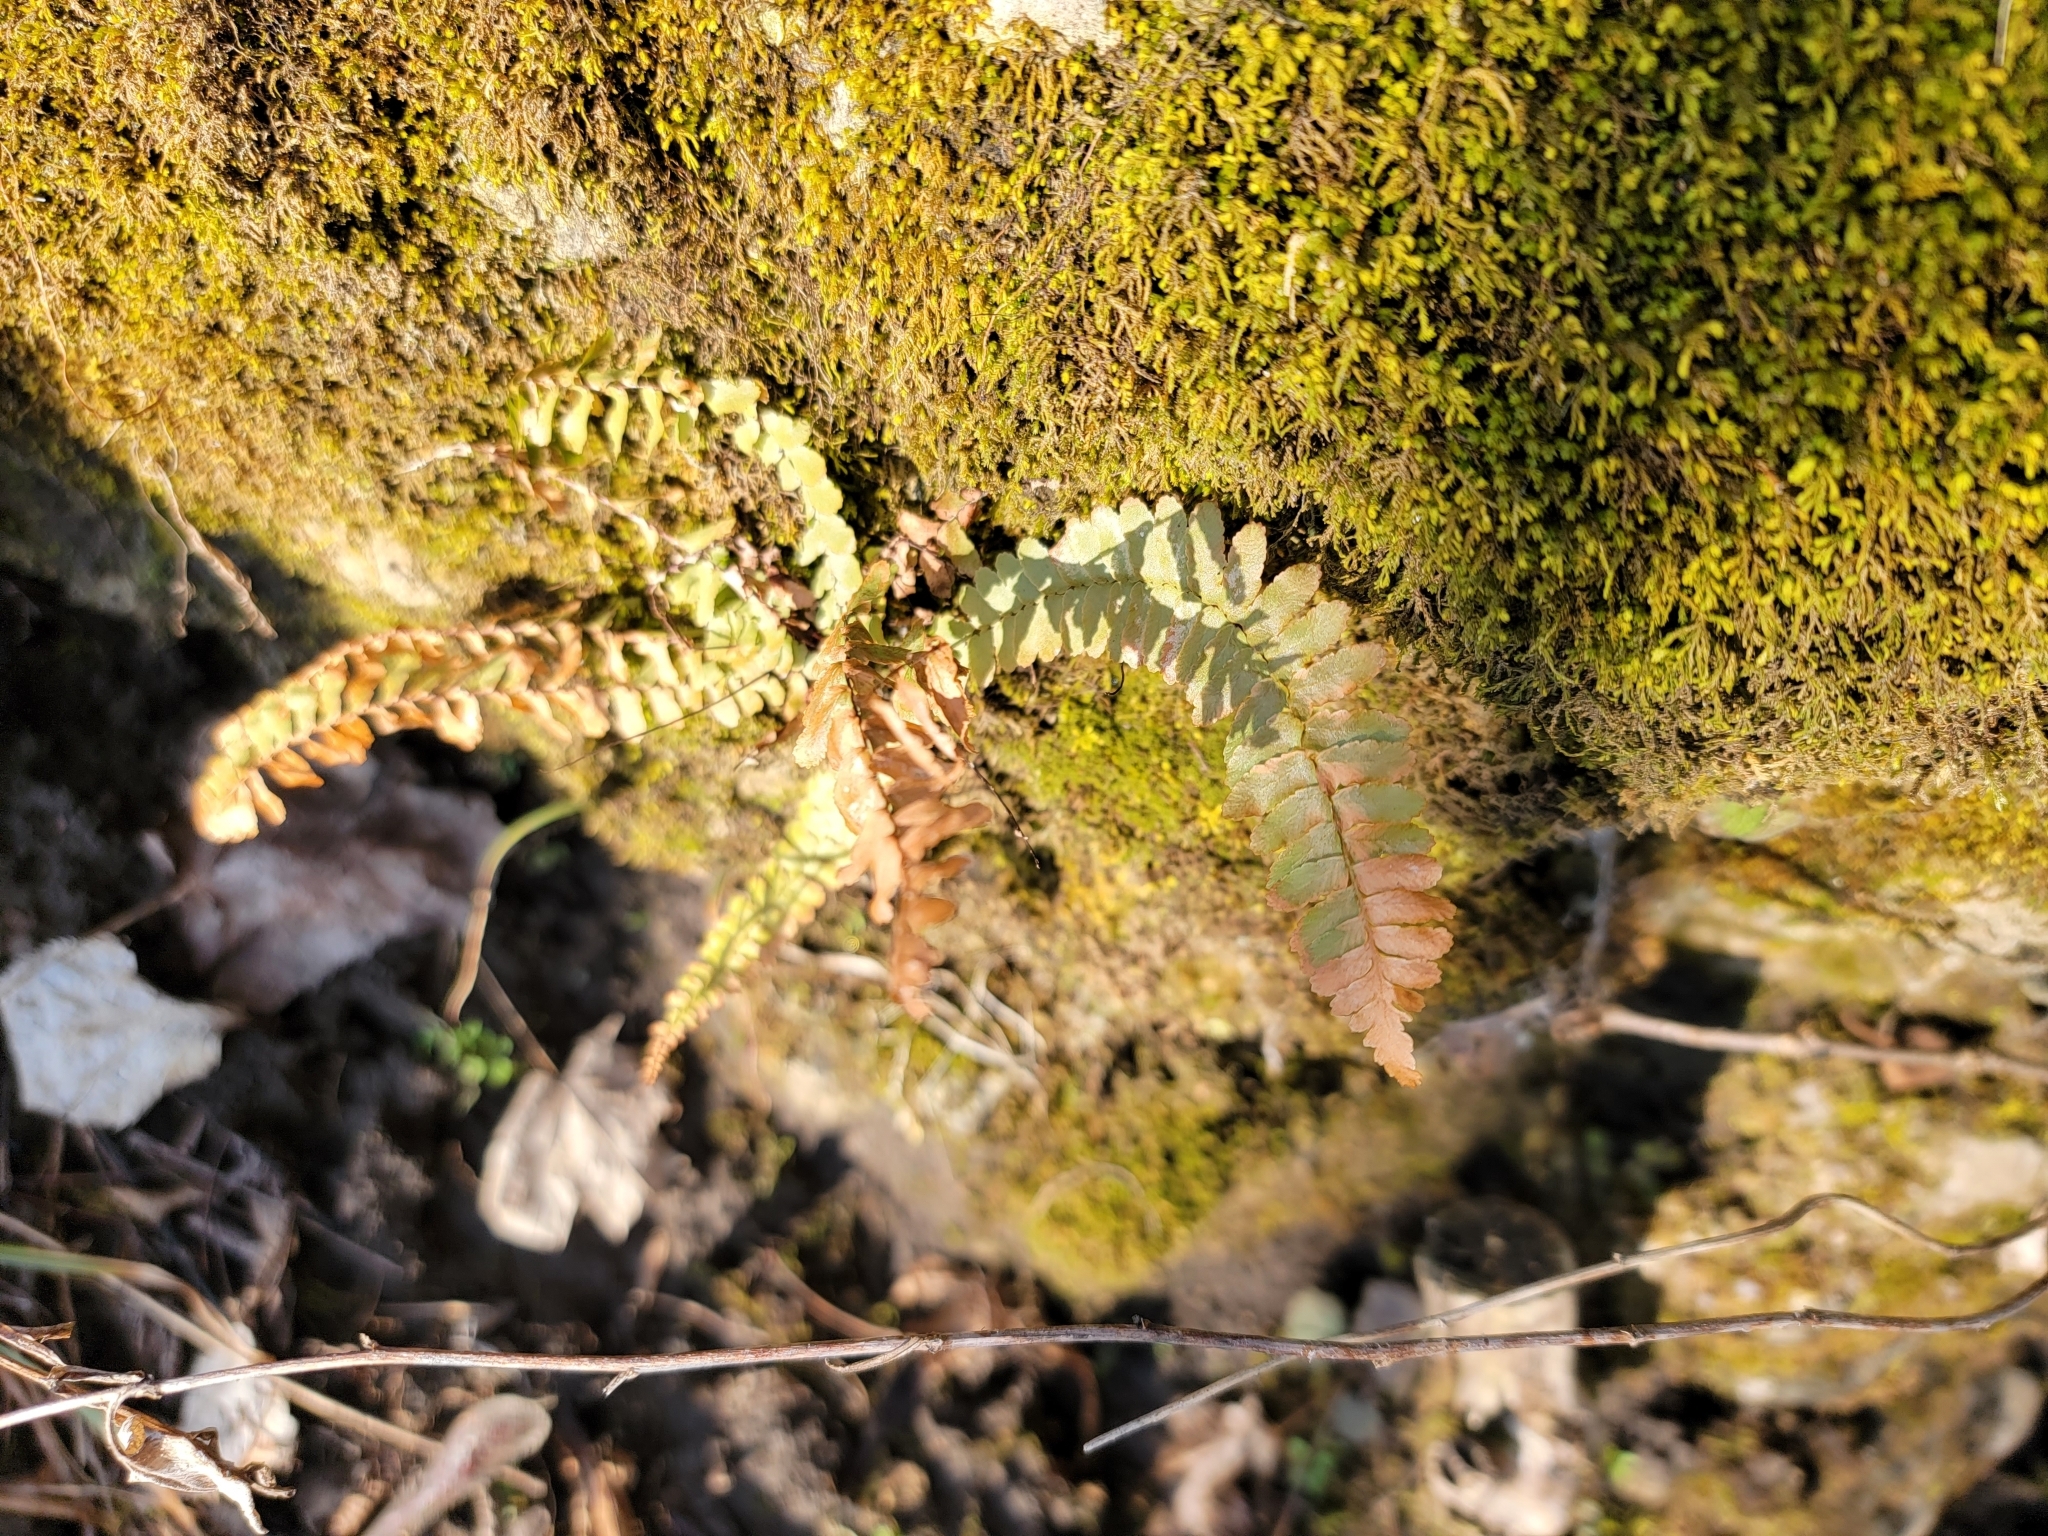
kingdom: Plantae
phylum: Tracheophyta
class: Polypodiopsida
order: Polypodiales
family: Aspleniaceae
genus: Asplenium
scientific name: Asplenium platyneuron
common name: Ebony spleenwort
